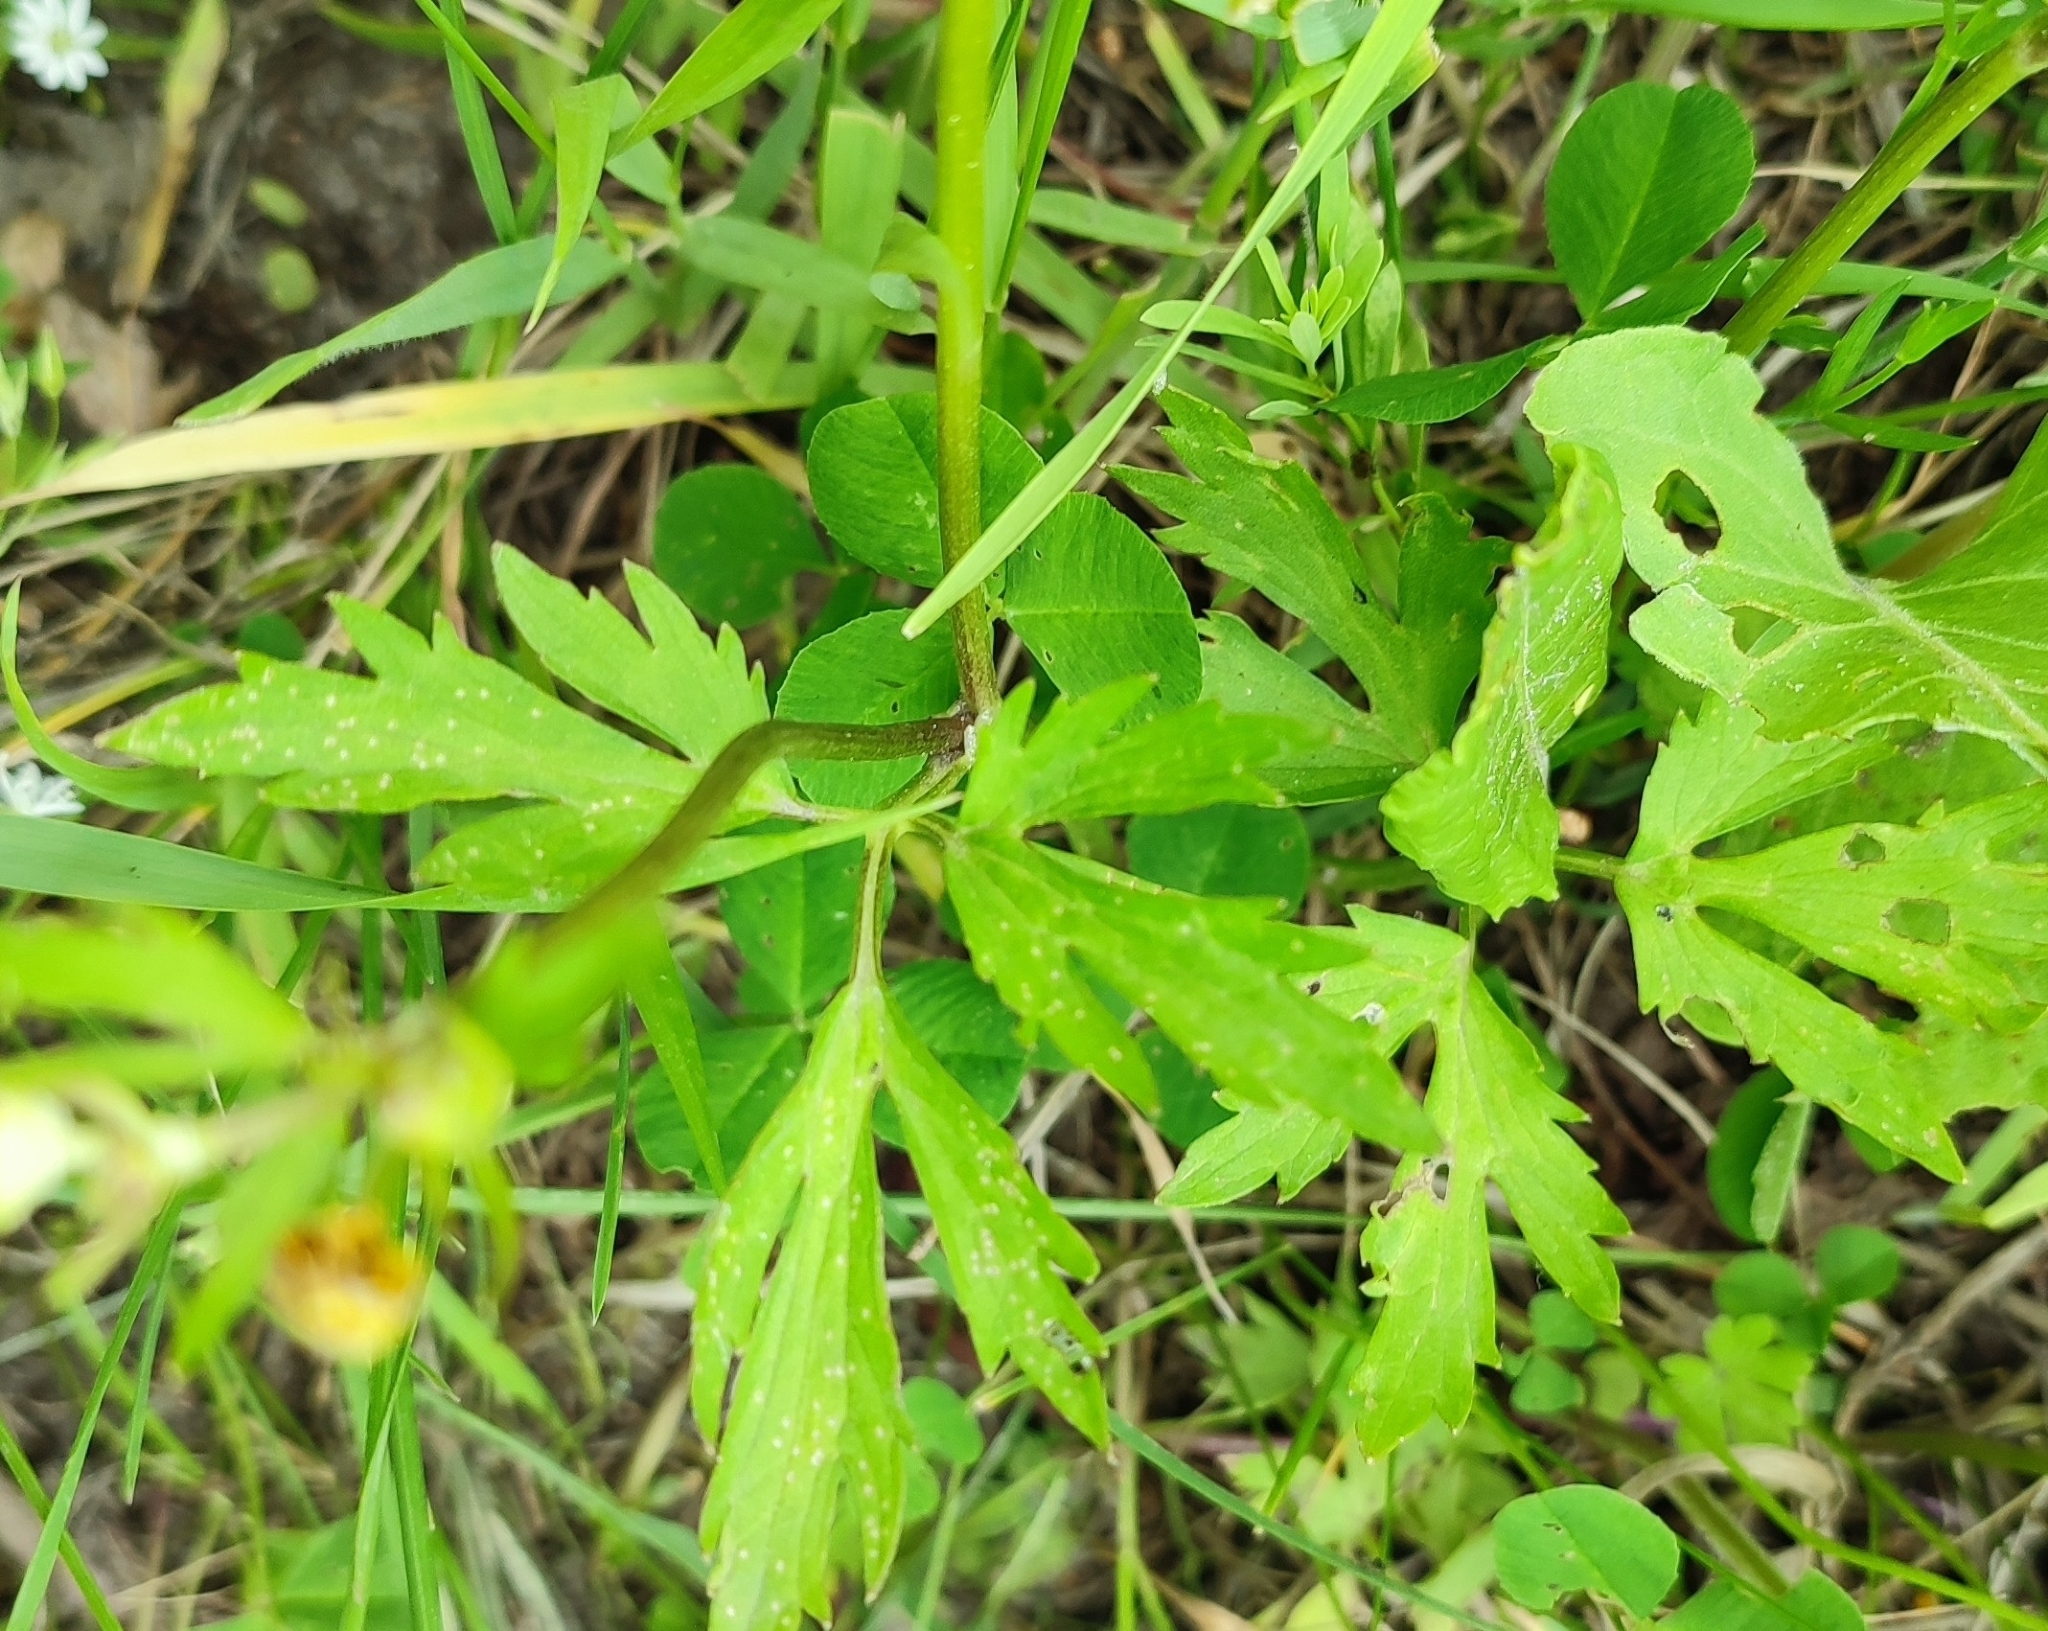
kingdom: Plantae
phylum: Tracheophyta
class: Magnoliopsida
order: Ranunculales
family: Ranunculaceae
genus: Ranunculus
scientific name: Ranunculus repens
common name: Creeping buttercup
